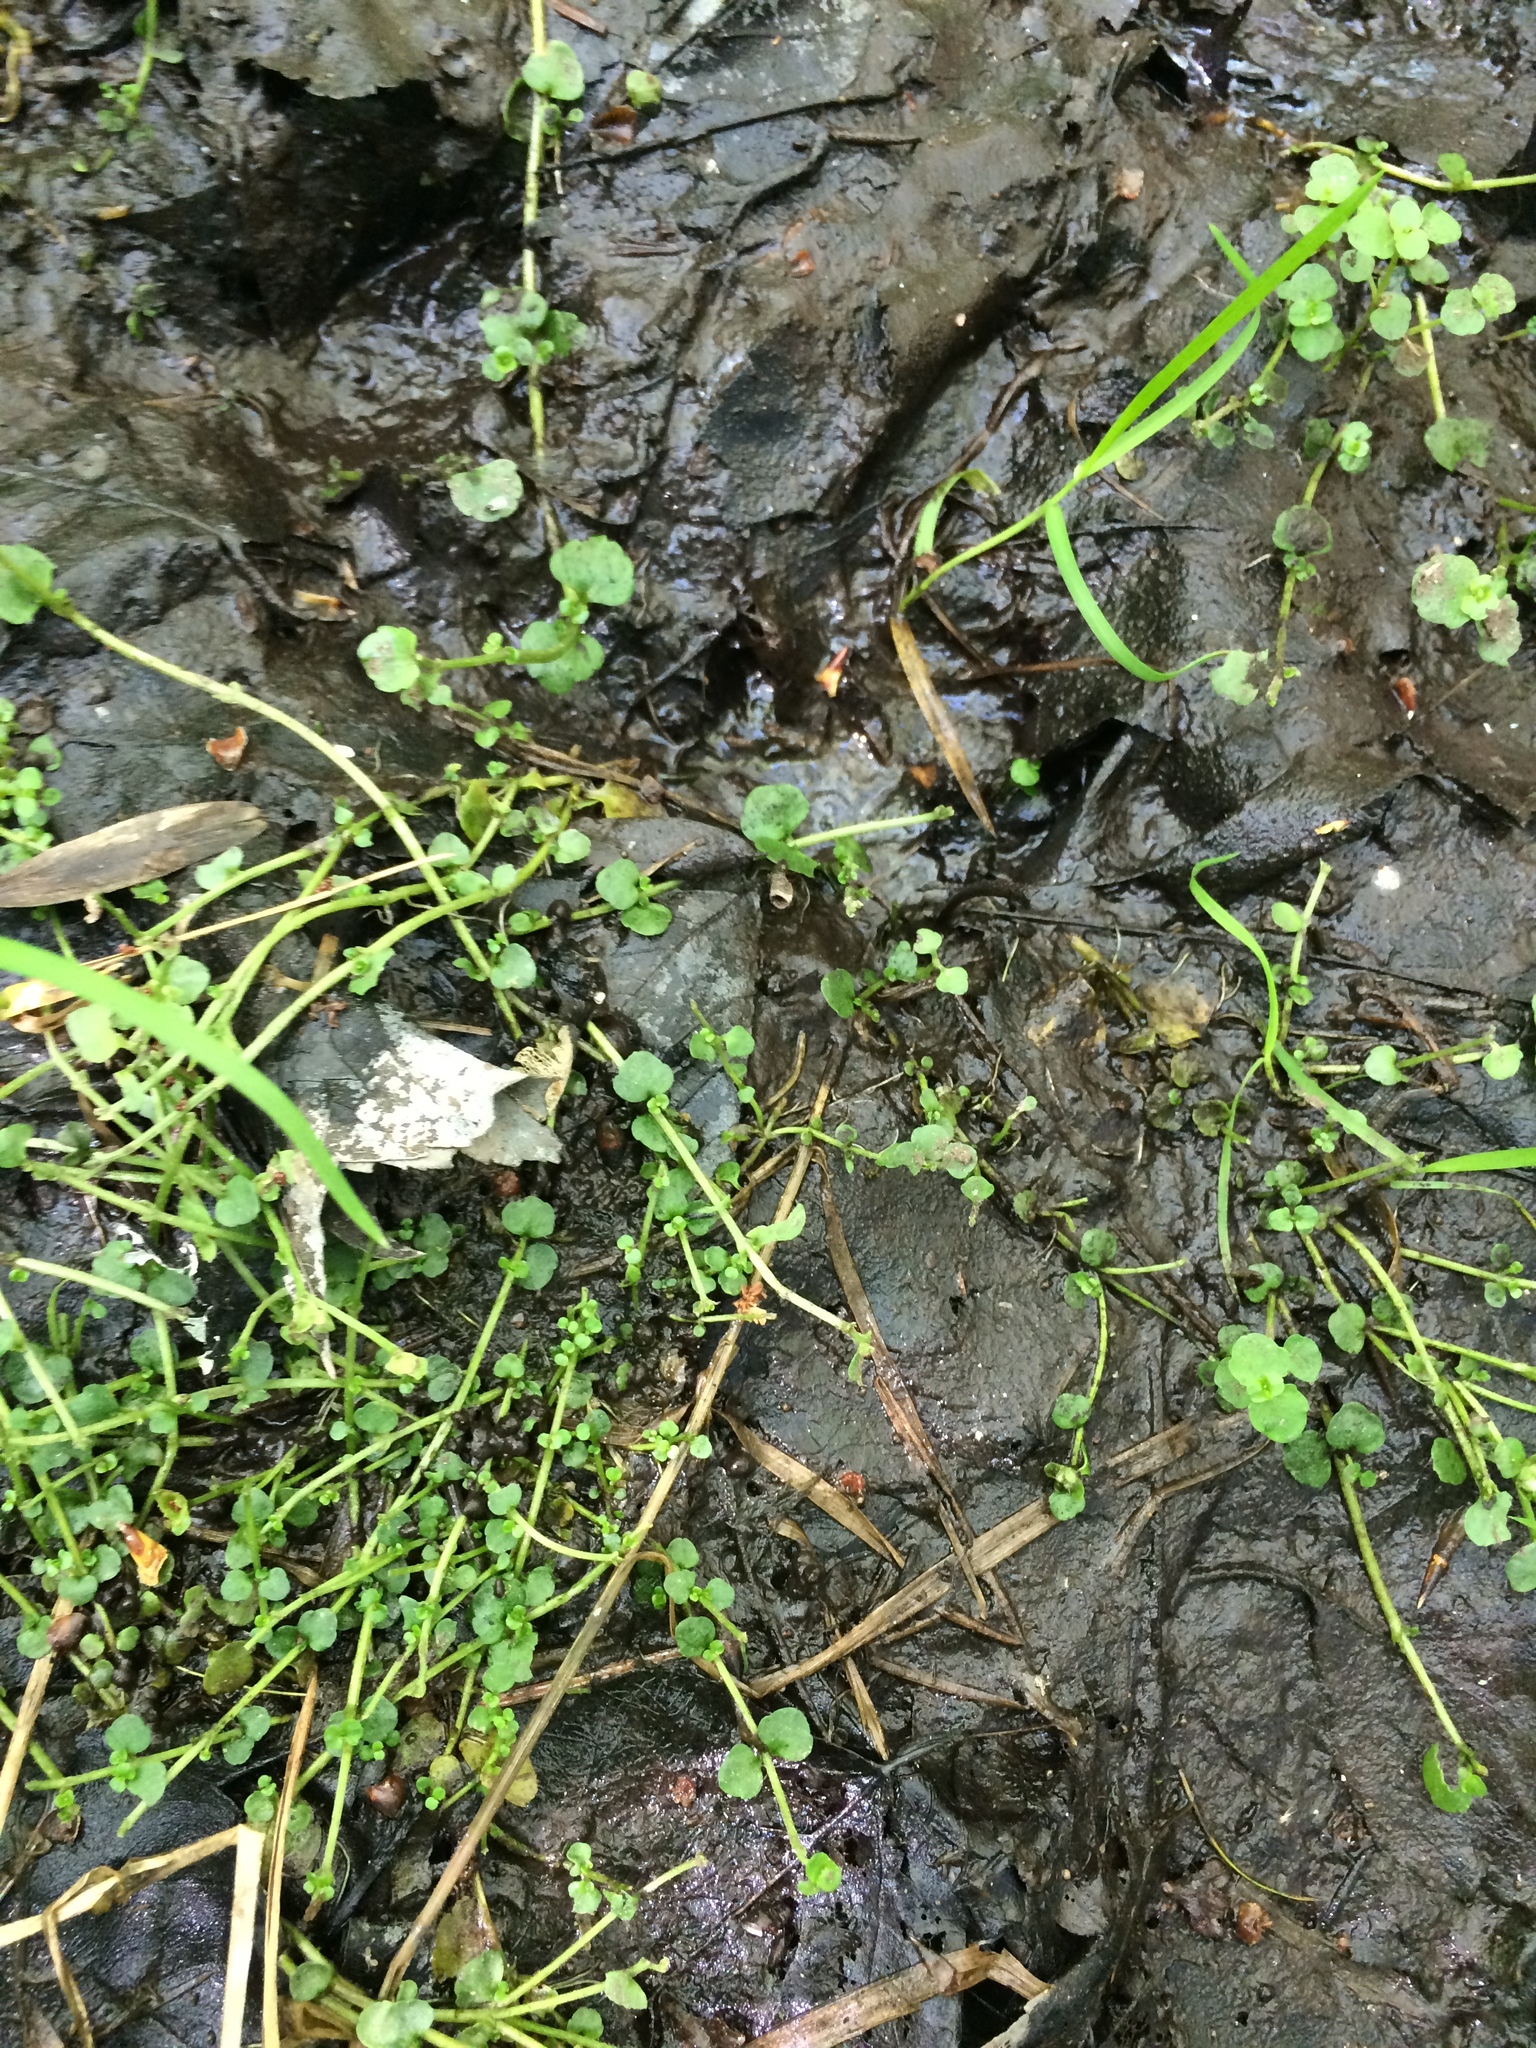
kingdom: Plantae
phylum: Tracheophyta
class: Magnoliopsida
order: Saxifragales
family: Saxifragaceae
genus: Chrysosplenium
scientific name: Chrysosplenium americanum
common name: American golden-saxifrage
